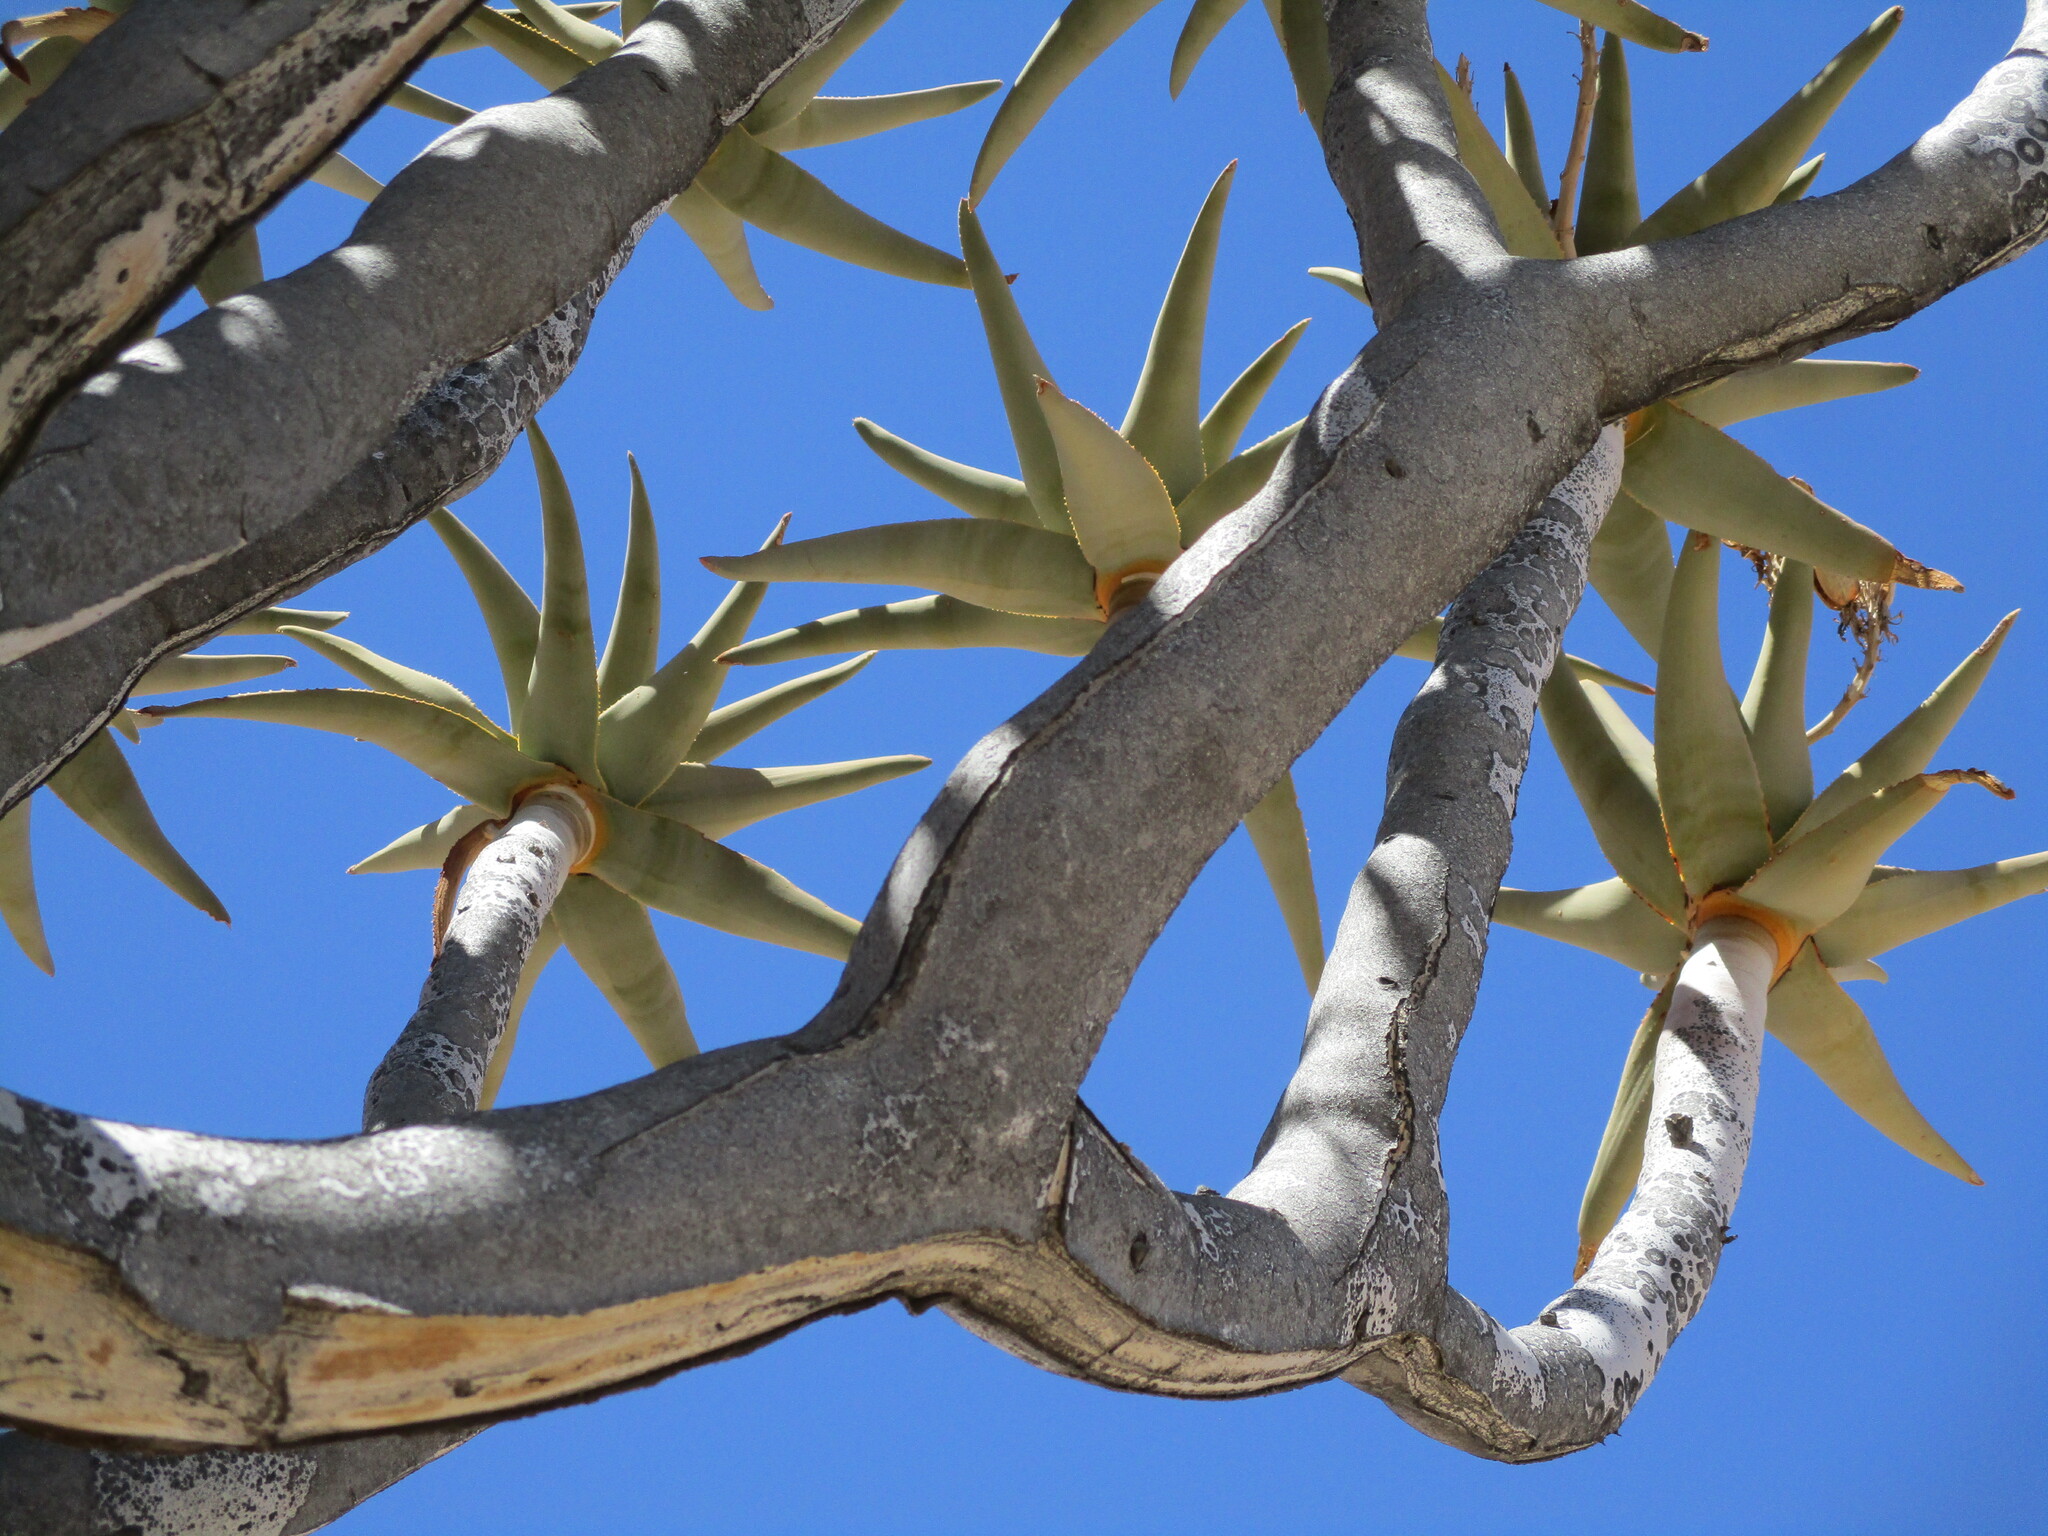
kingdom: Plantae
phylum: Tracheophyta
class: Liliopsida
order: Asparagales
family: Asphodelaceae
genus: Aloidendron
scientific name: Aloidendron dichotomum
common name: Quiver tree
